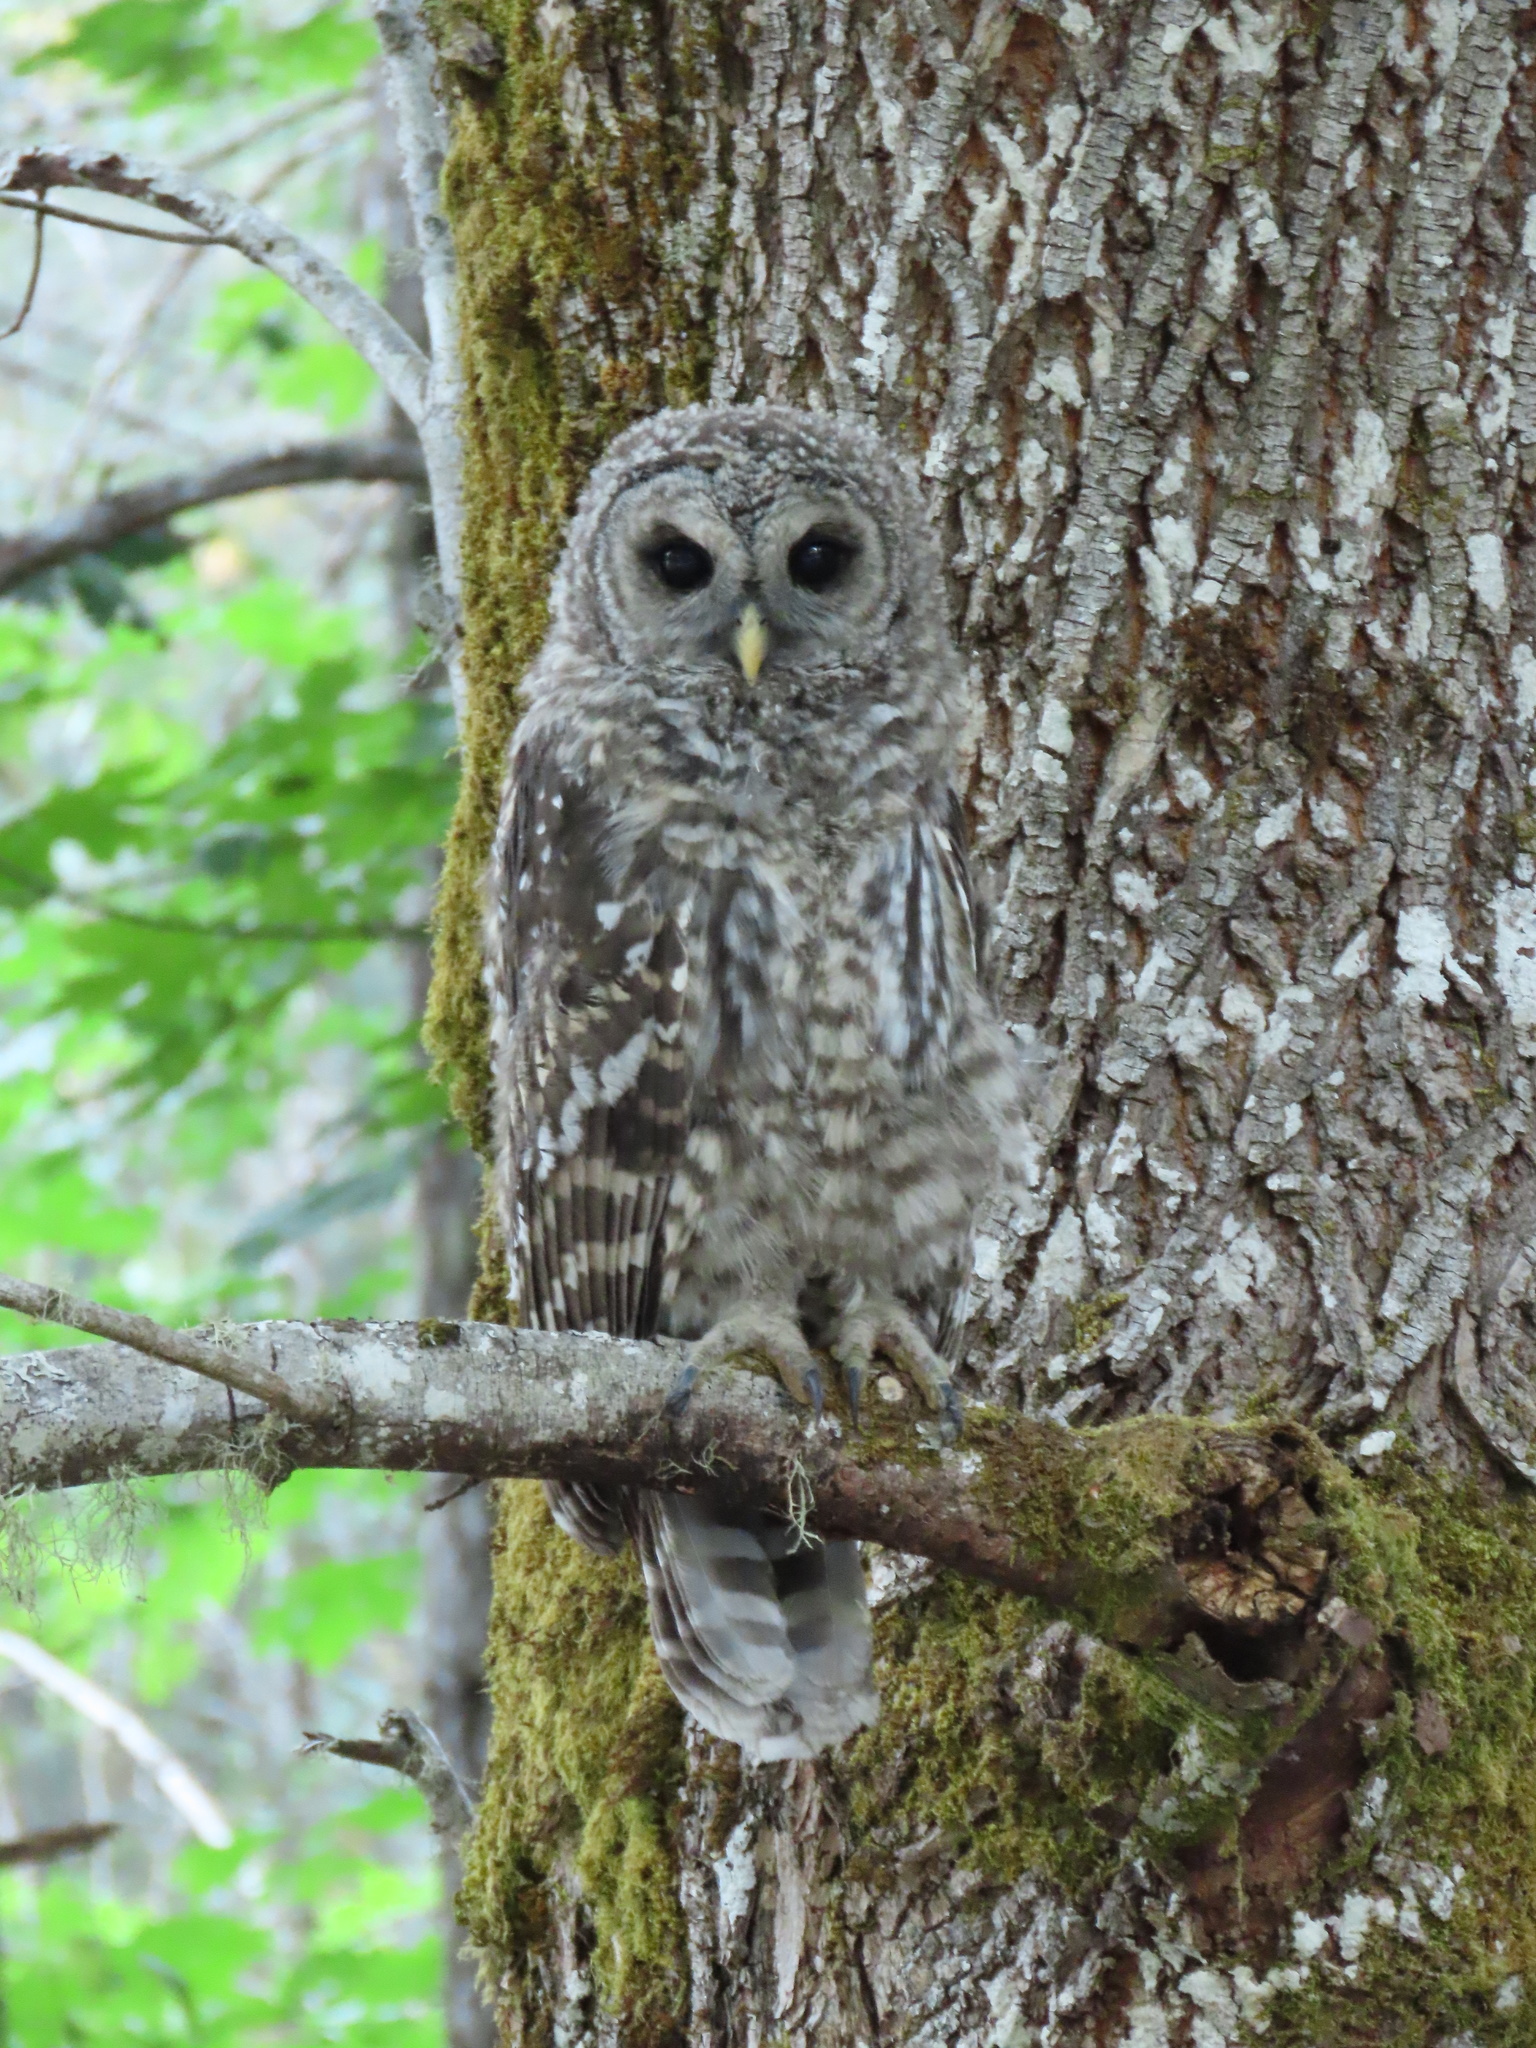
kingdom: Animalia
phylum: Chordata
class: Aves
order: Strigiformes
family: Strigidae
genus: Strix
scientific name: Strix varia
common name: Barred owl
